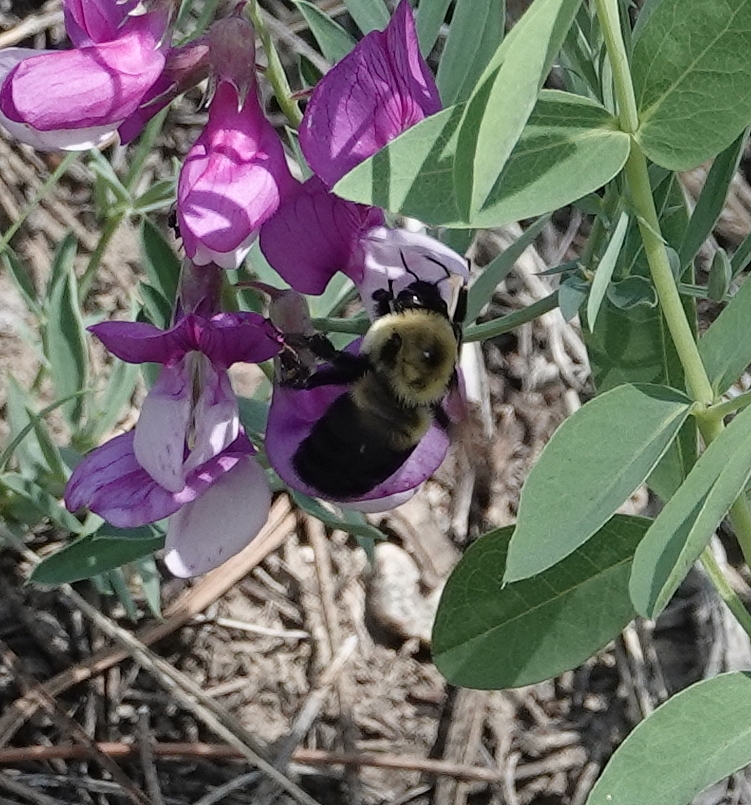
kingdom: Animalia
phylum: Arthropoda
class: Insecta
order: Hymenoptera
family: Apidae
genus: Bombus
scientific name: Bombus griseocollis
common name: Brown-belted bumble bee
